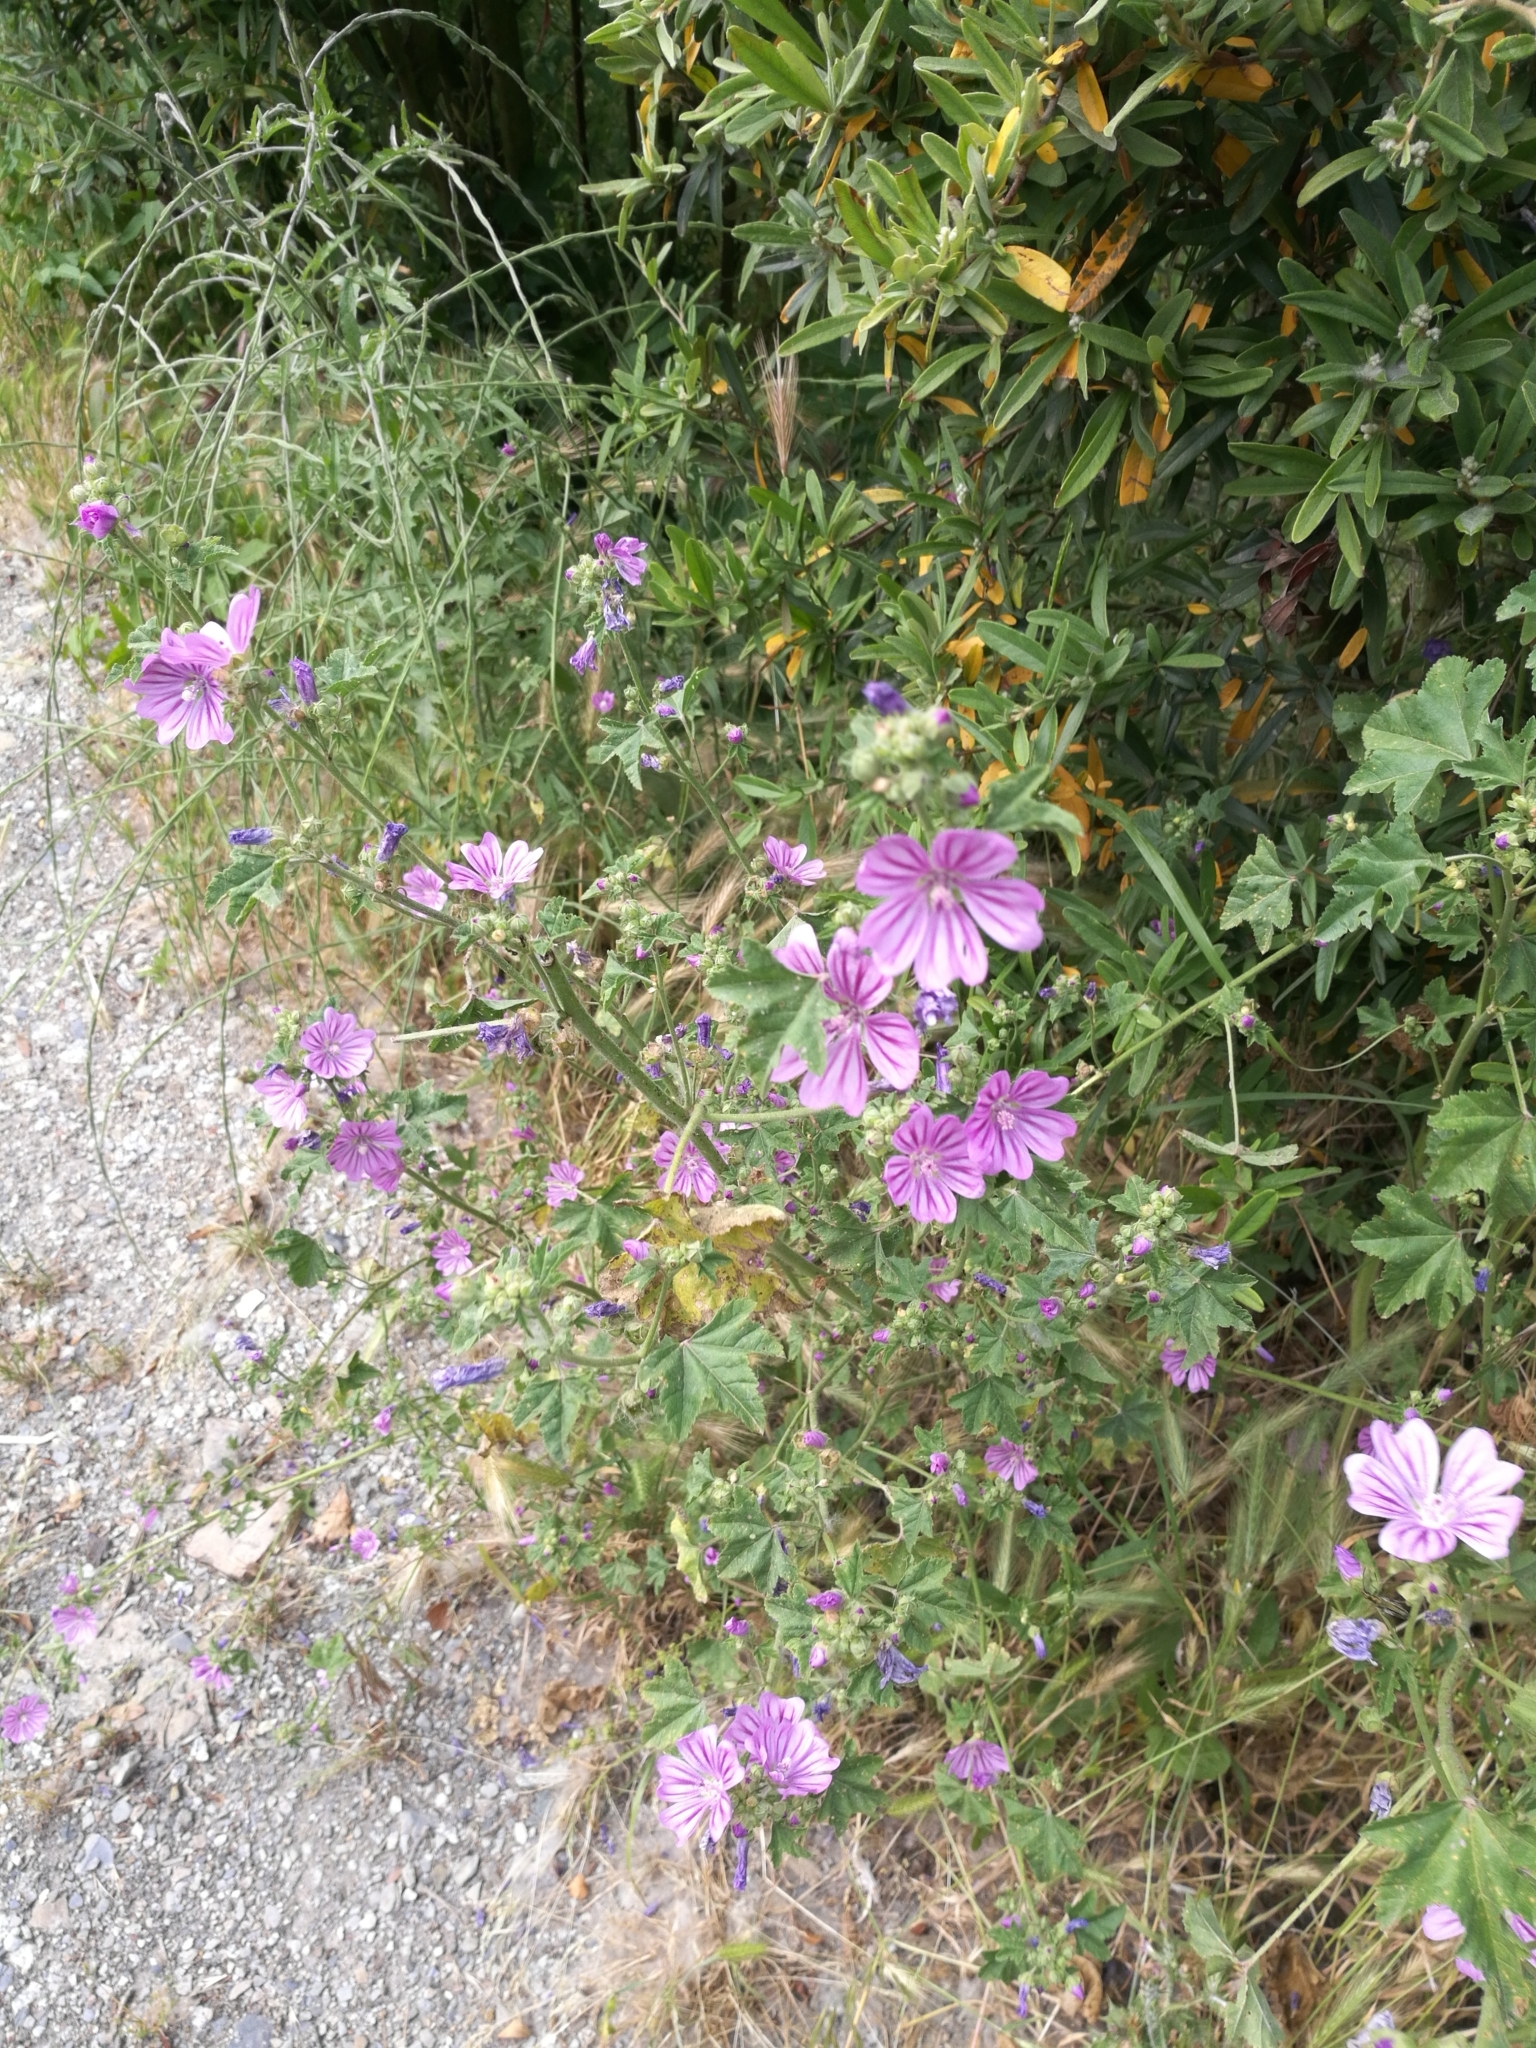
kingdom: Plantae
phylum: Tracheophyta
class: Magnoliopsida
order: Malvales
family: Malvaceae
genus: Malva
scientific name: Malva sylvestris
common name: Common mallow
